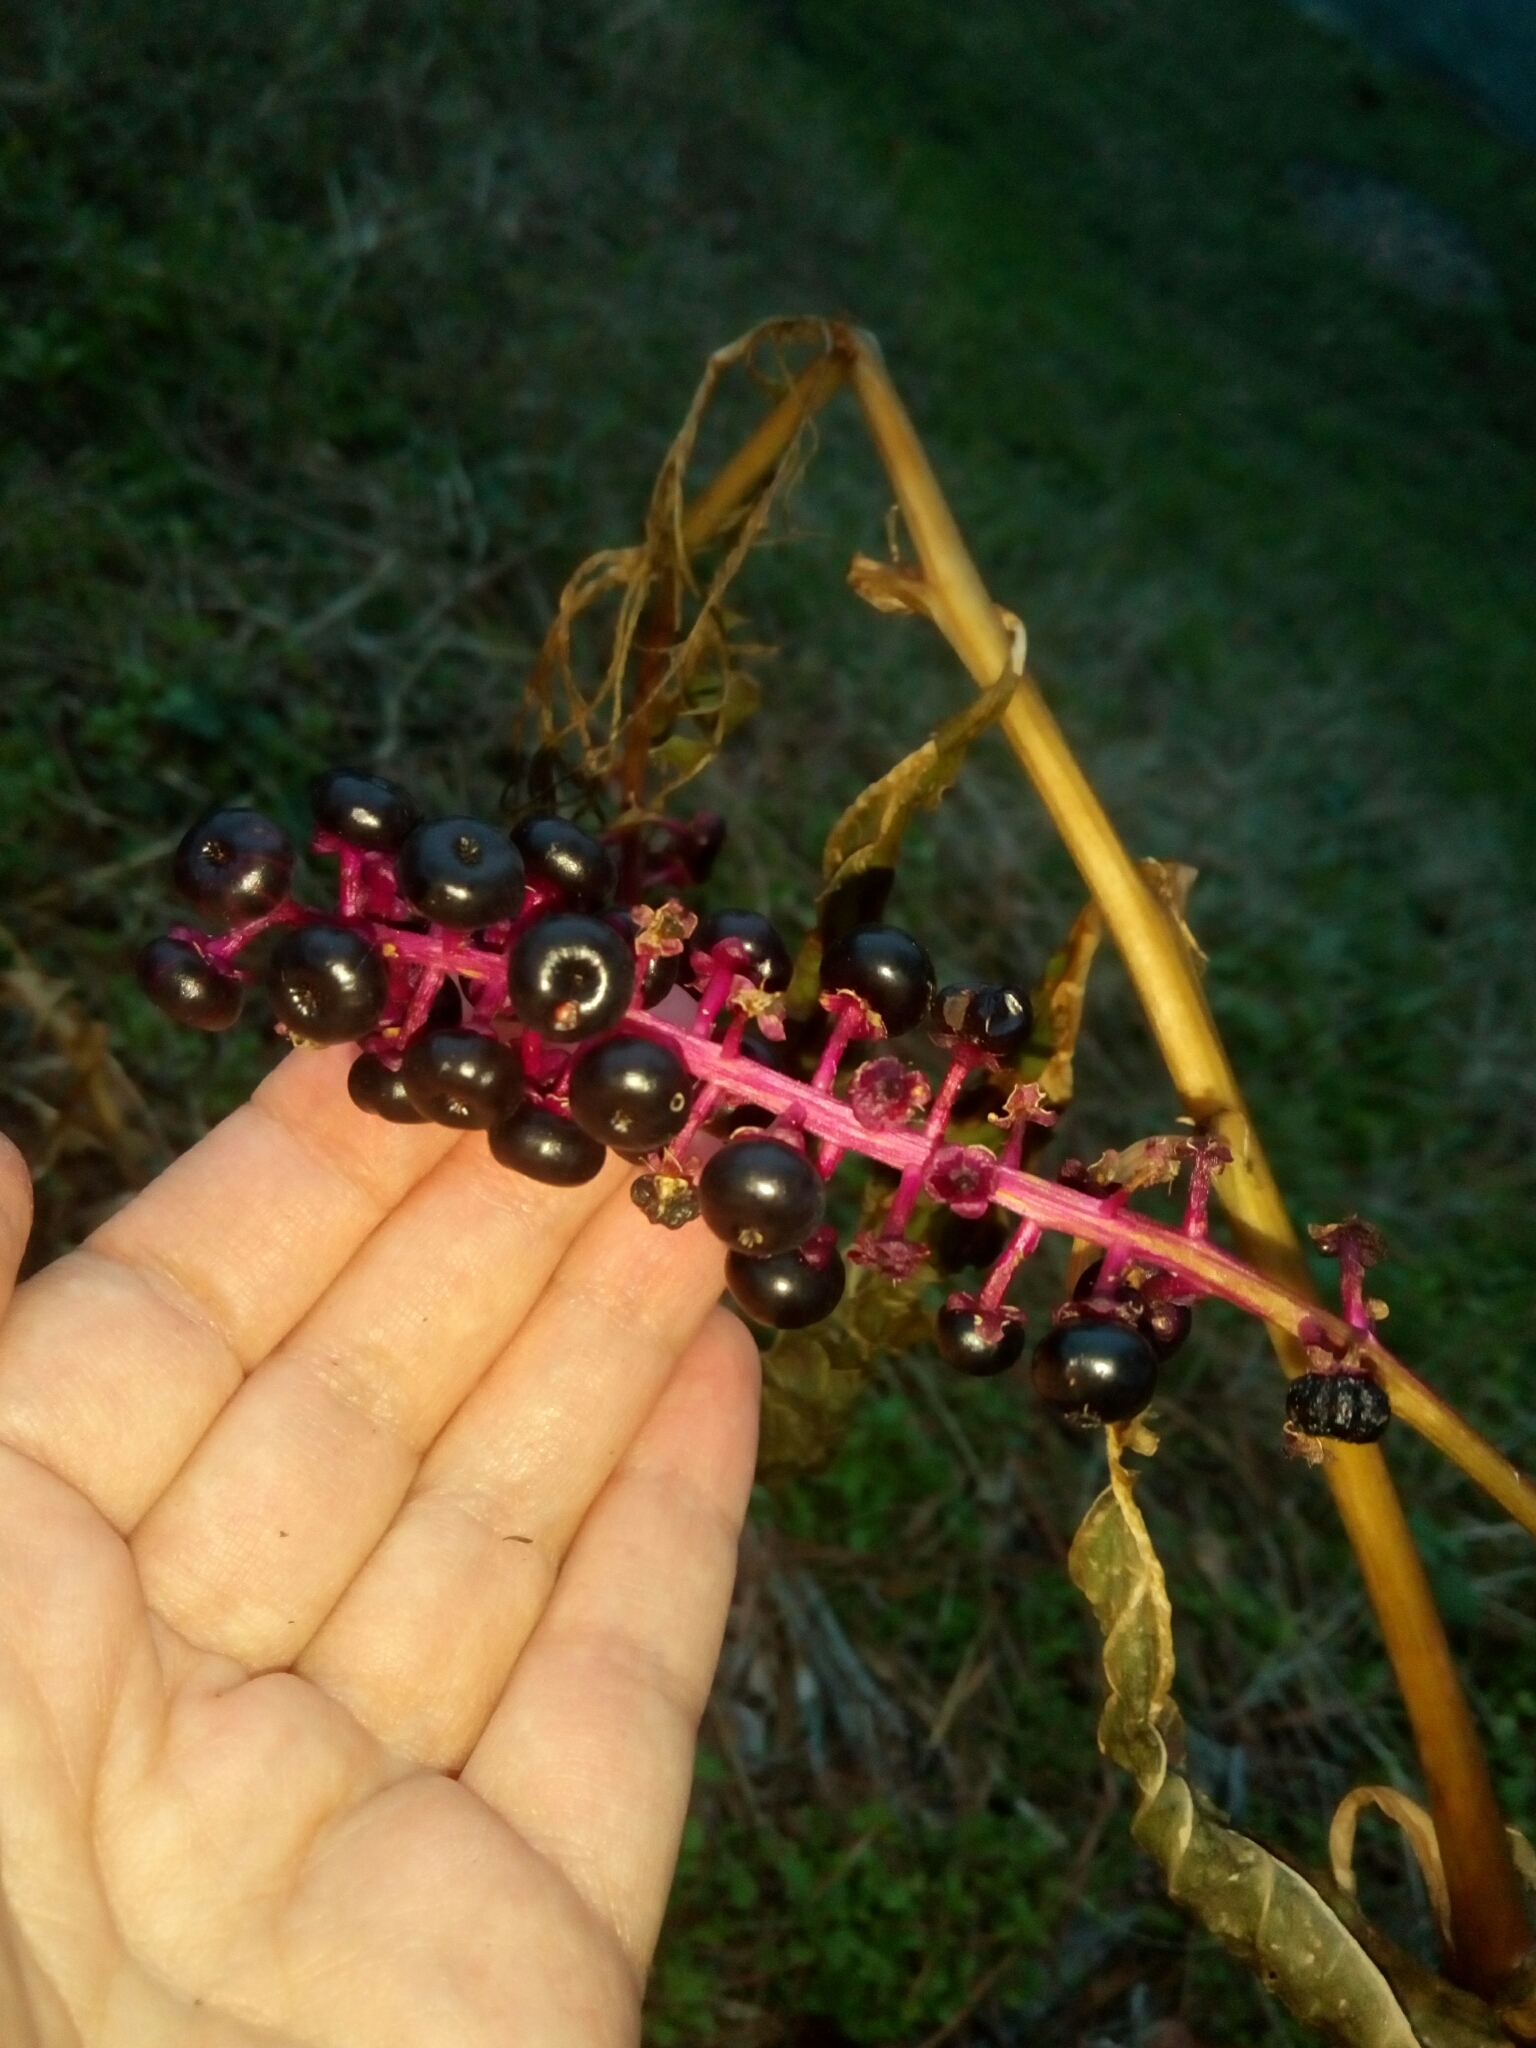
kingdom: Plantae
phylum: Tracheophyta
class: Magnoliopsida
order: Caryophyllales
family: Phytolaccaceae
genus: Phytolacca
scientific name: Phytolacca americana
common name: American pokeweed
